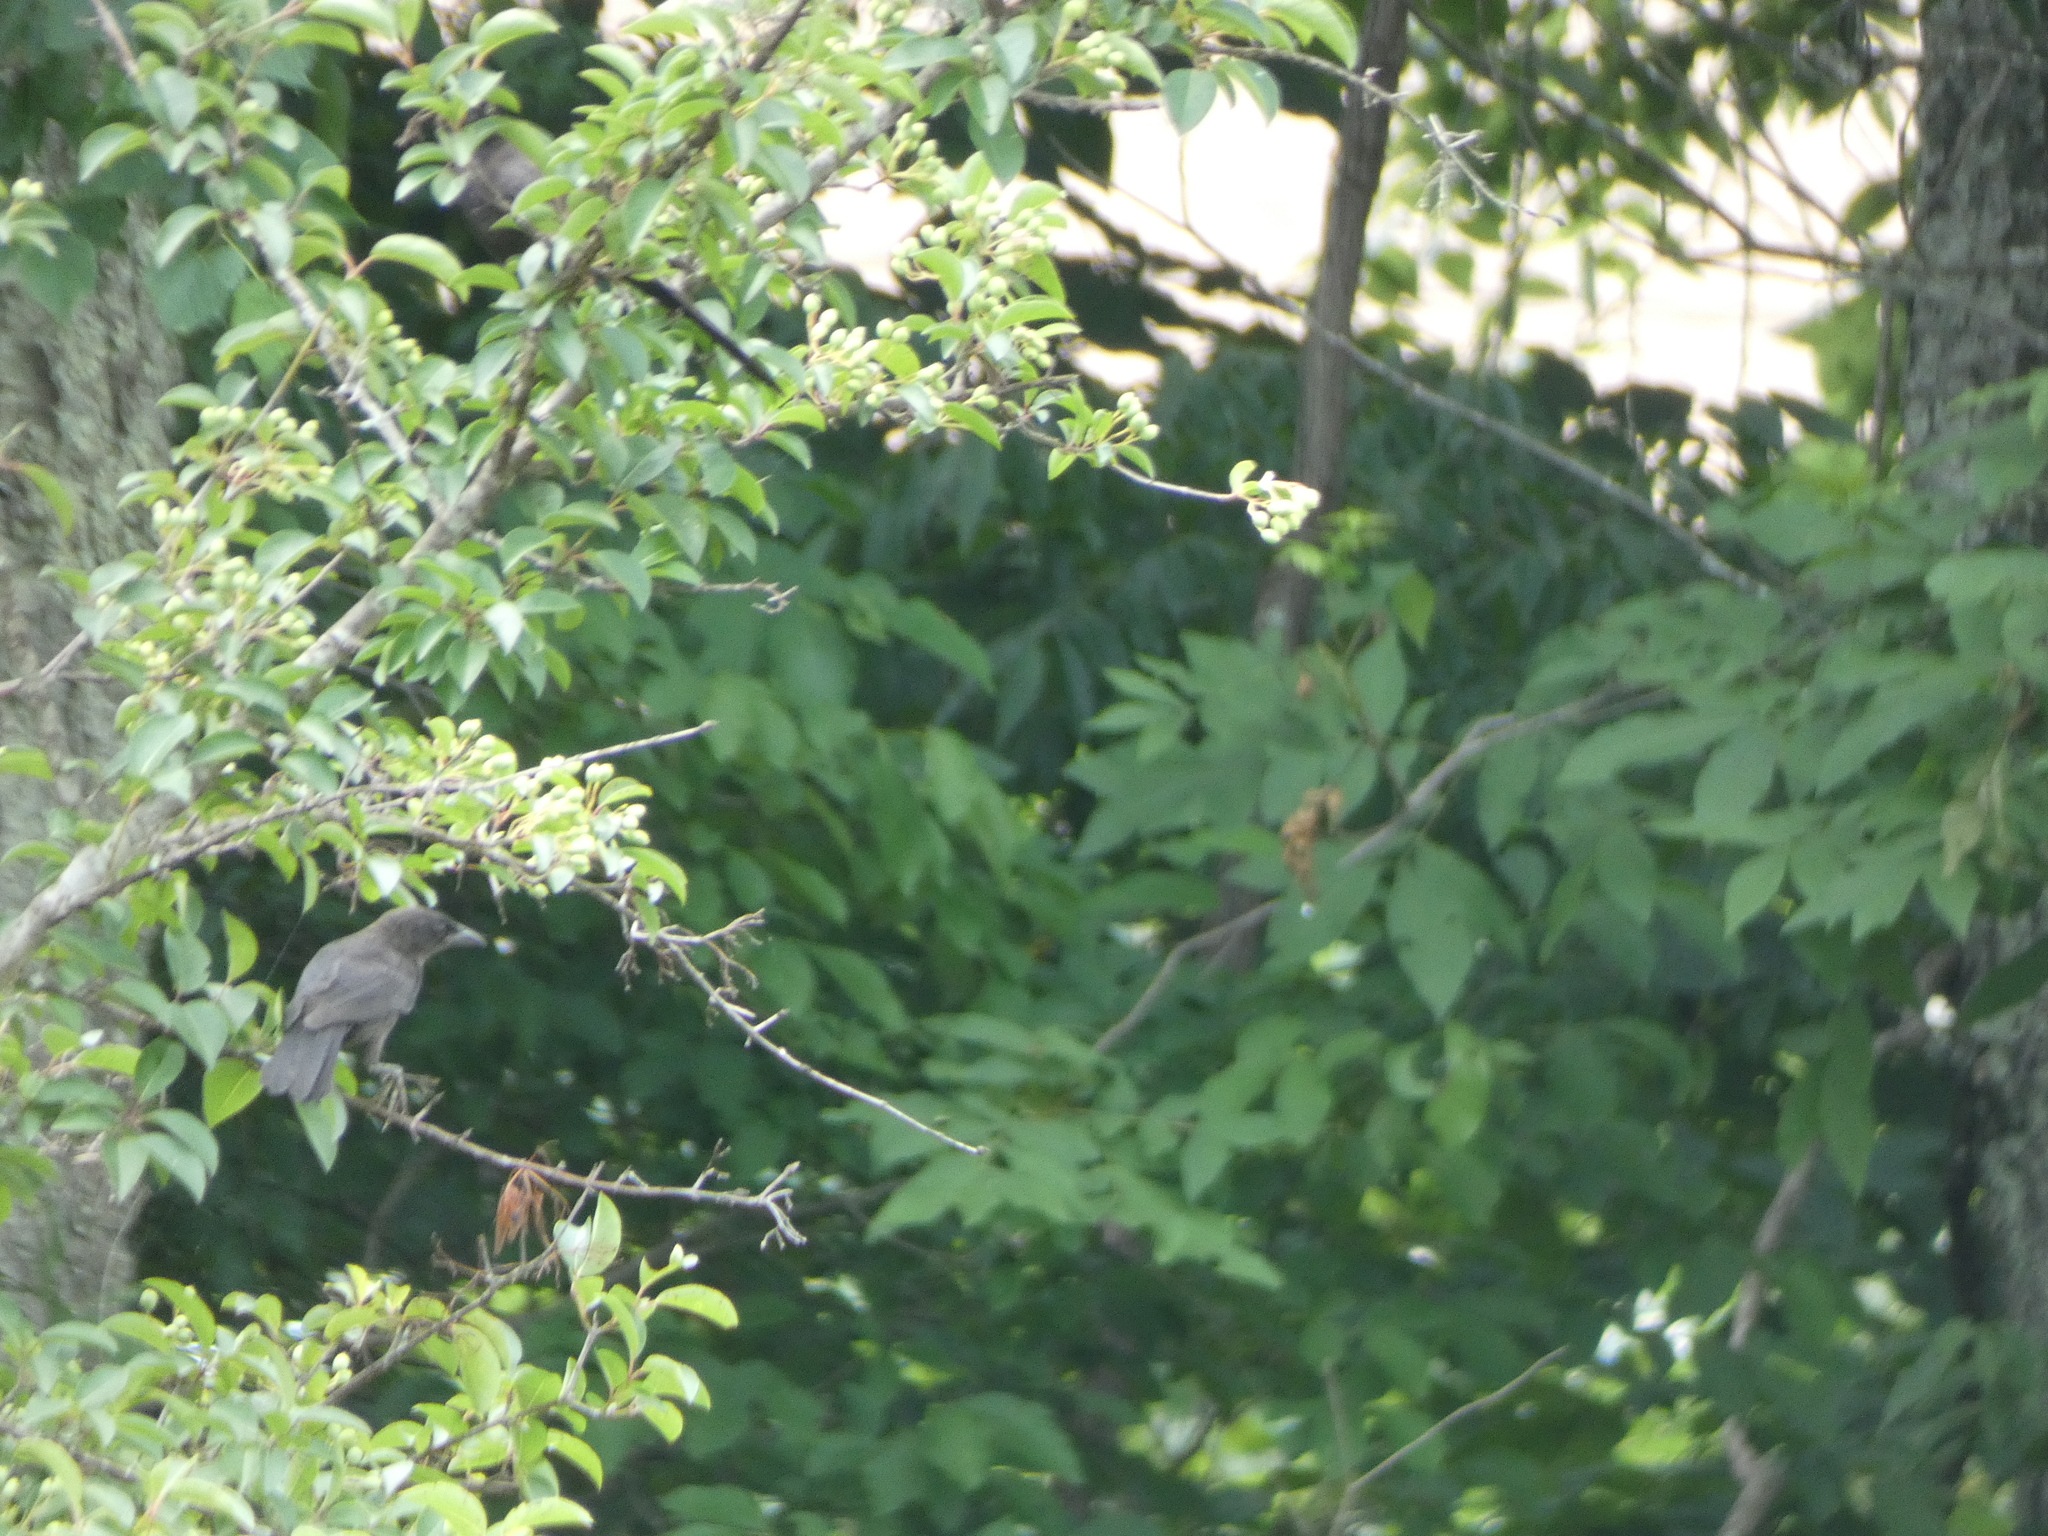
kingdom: Animalia
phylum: Chordata
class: Aves
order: Passeriformes
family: Icteridae
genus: Quiscalus
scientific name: Quiscalus quiscula
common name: Common grackle
